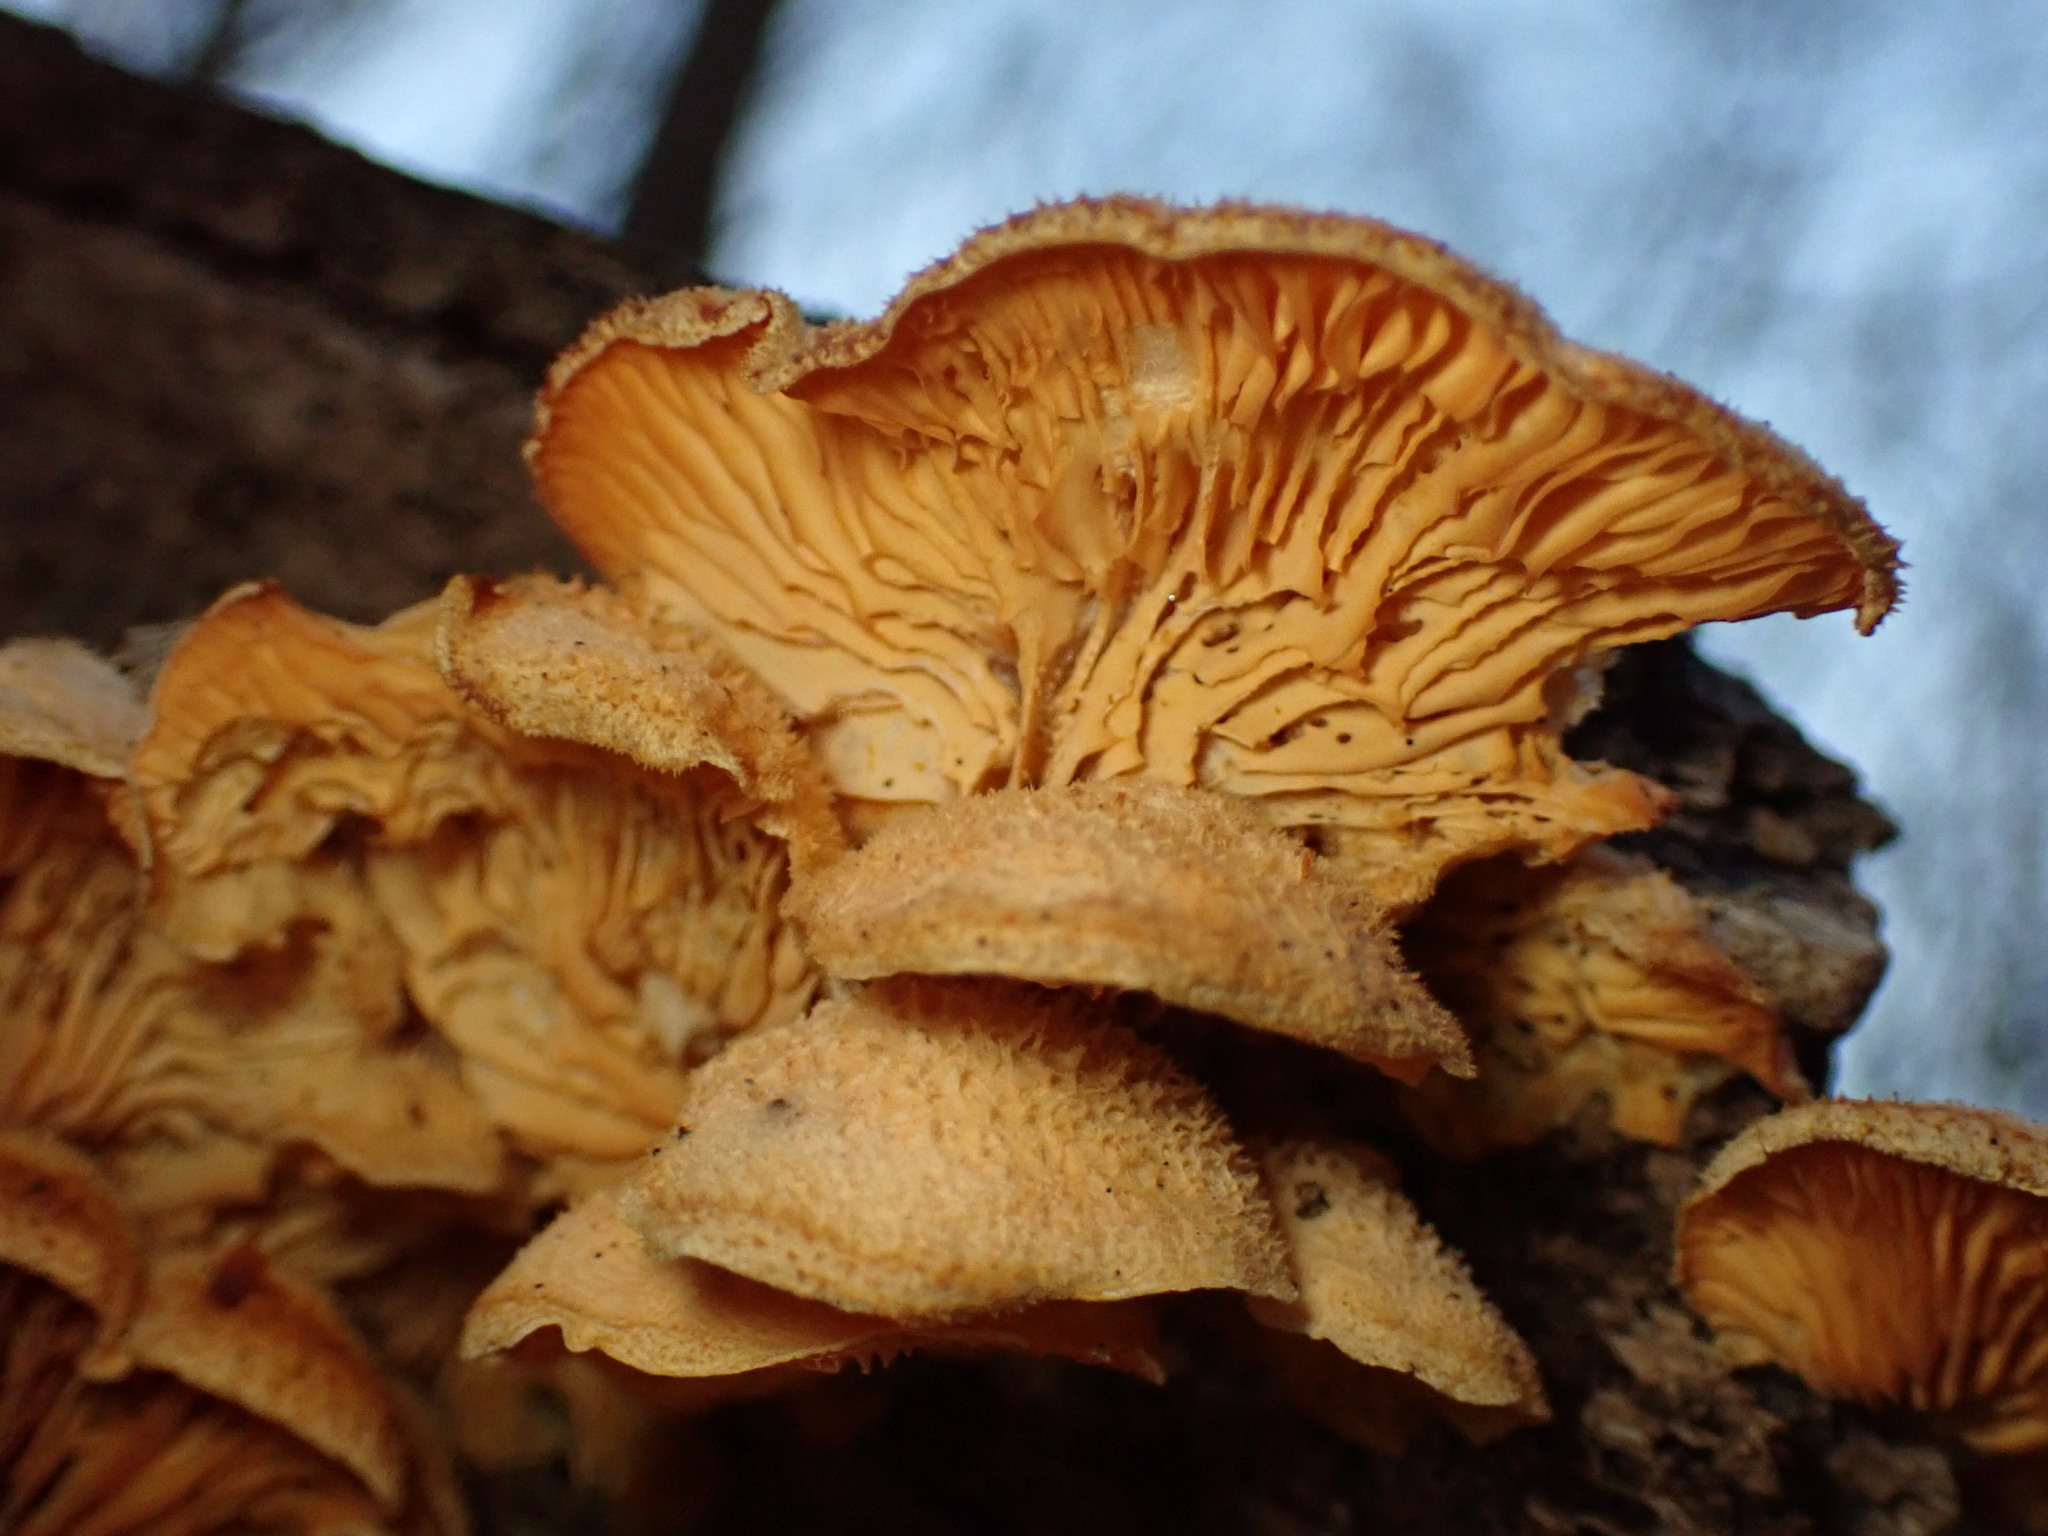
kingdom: Fungi
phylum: Basidiomycota
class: Agaricomycetes
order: Agaricales
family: Phyllotopsidaceae
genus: Phyllotopsis
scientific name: Phyllotopsis nidulans
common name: Orange mock oyster
